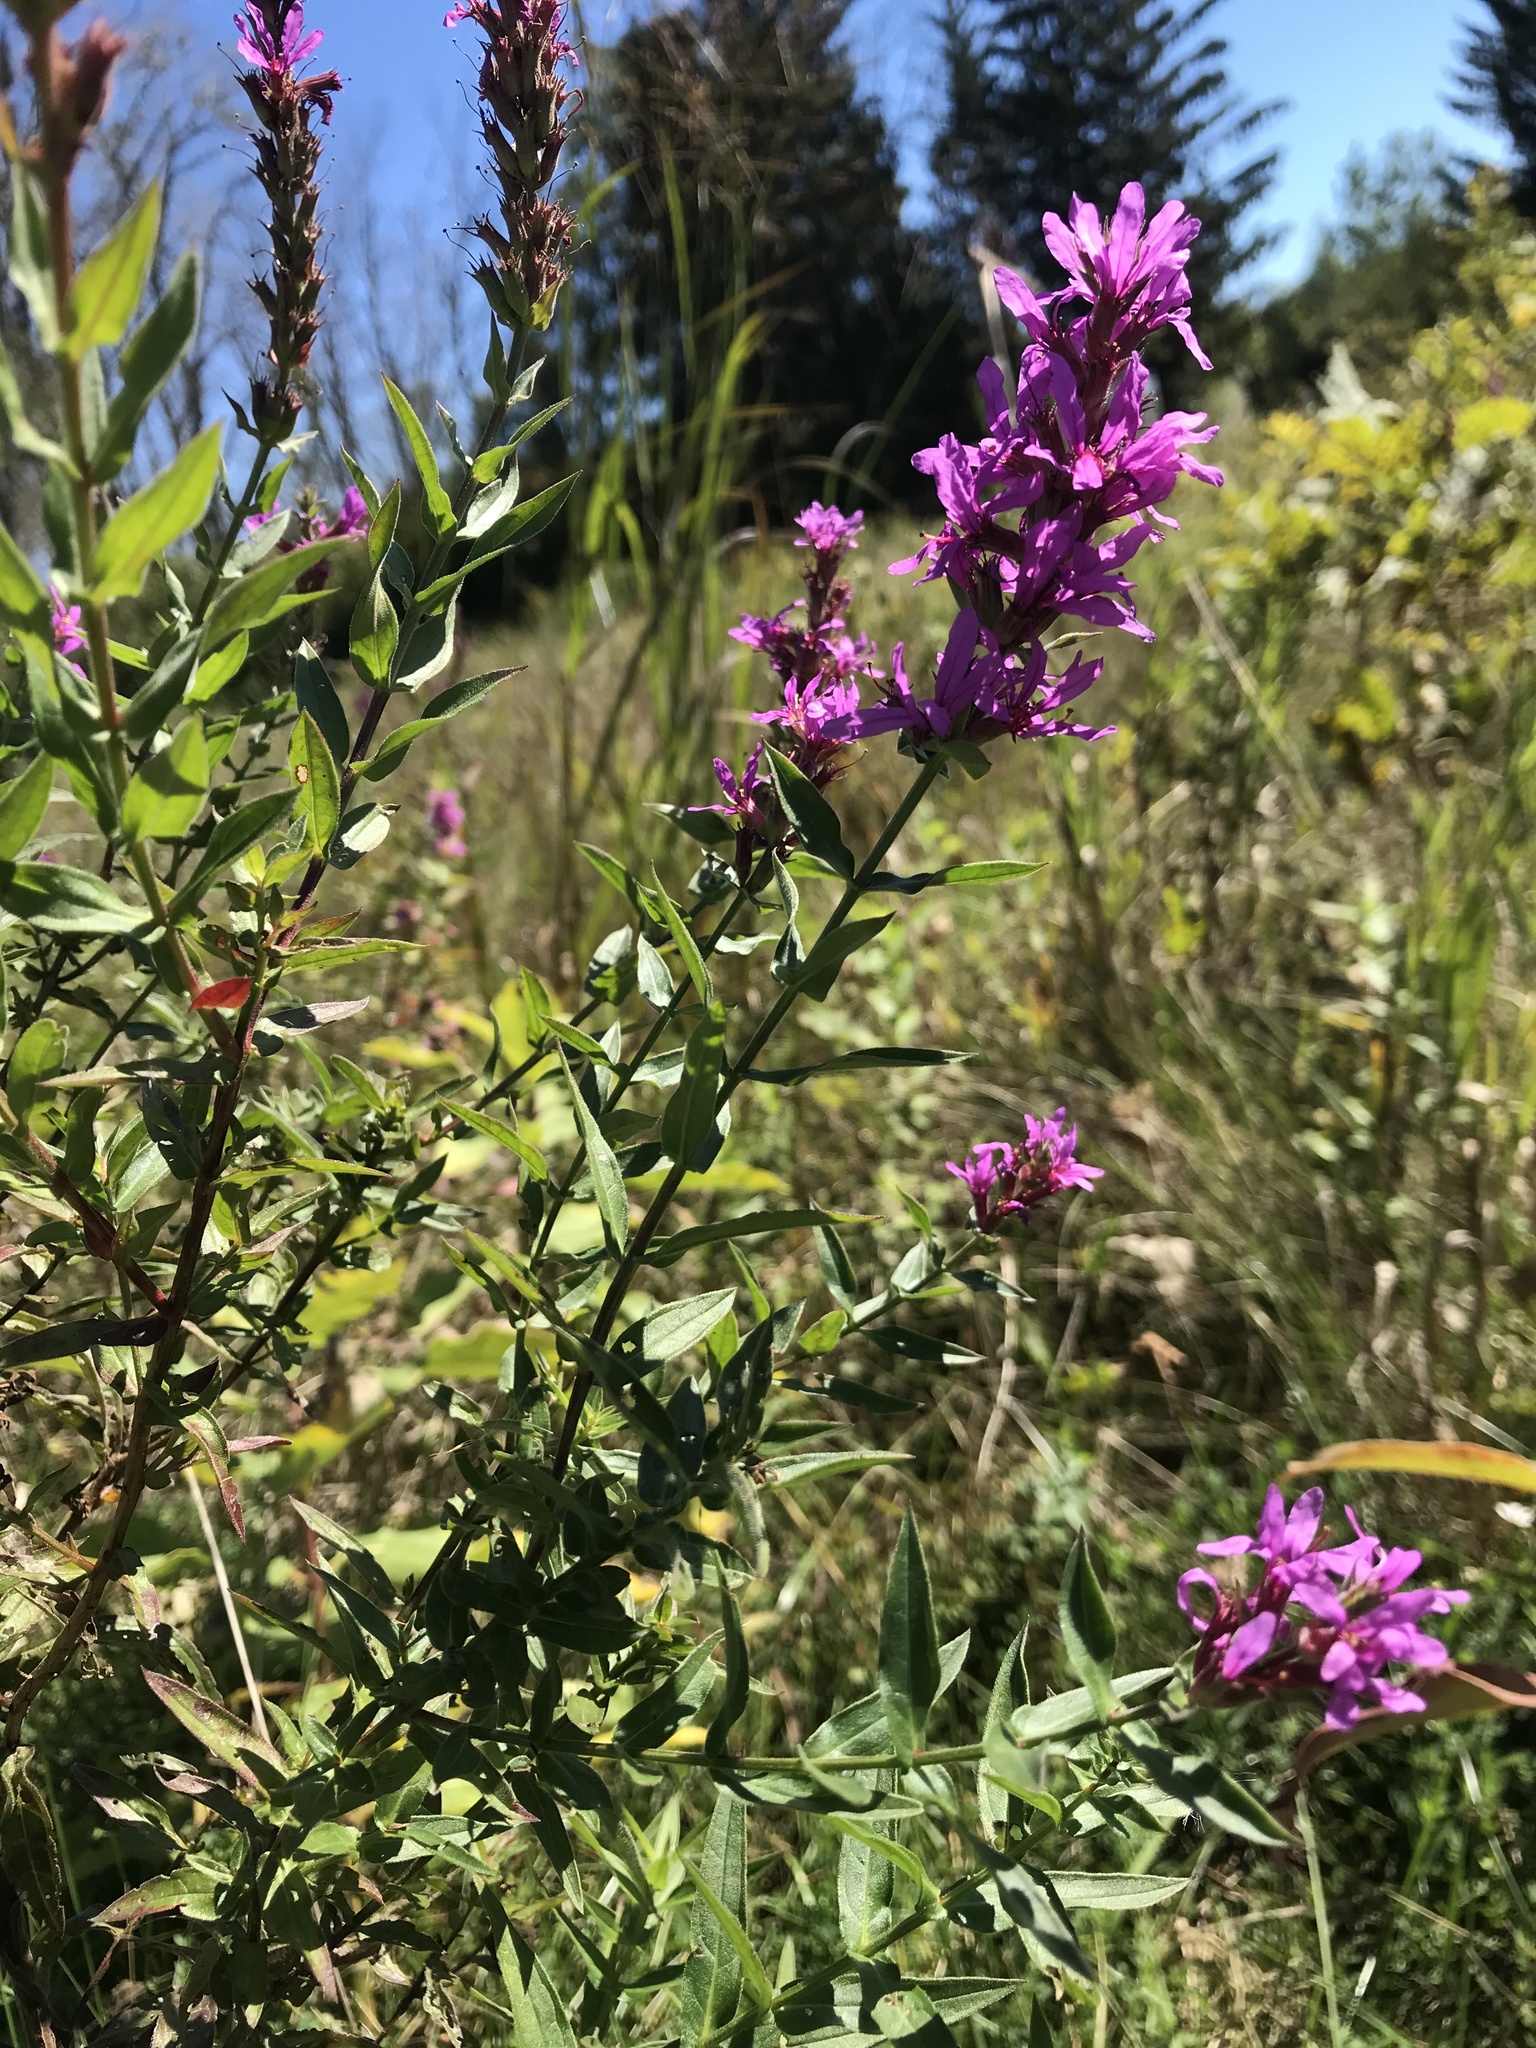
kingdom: Plantae
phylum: Tracheophyta
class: Magnoliopsida
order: Myrtales
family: Lythraceae
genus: Lythrum
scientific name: Lythrum salicaria
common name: Purple loosestrife
